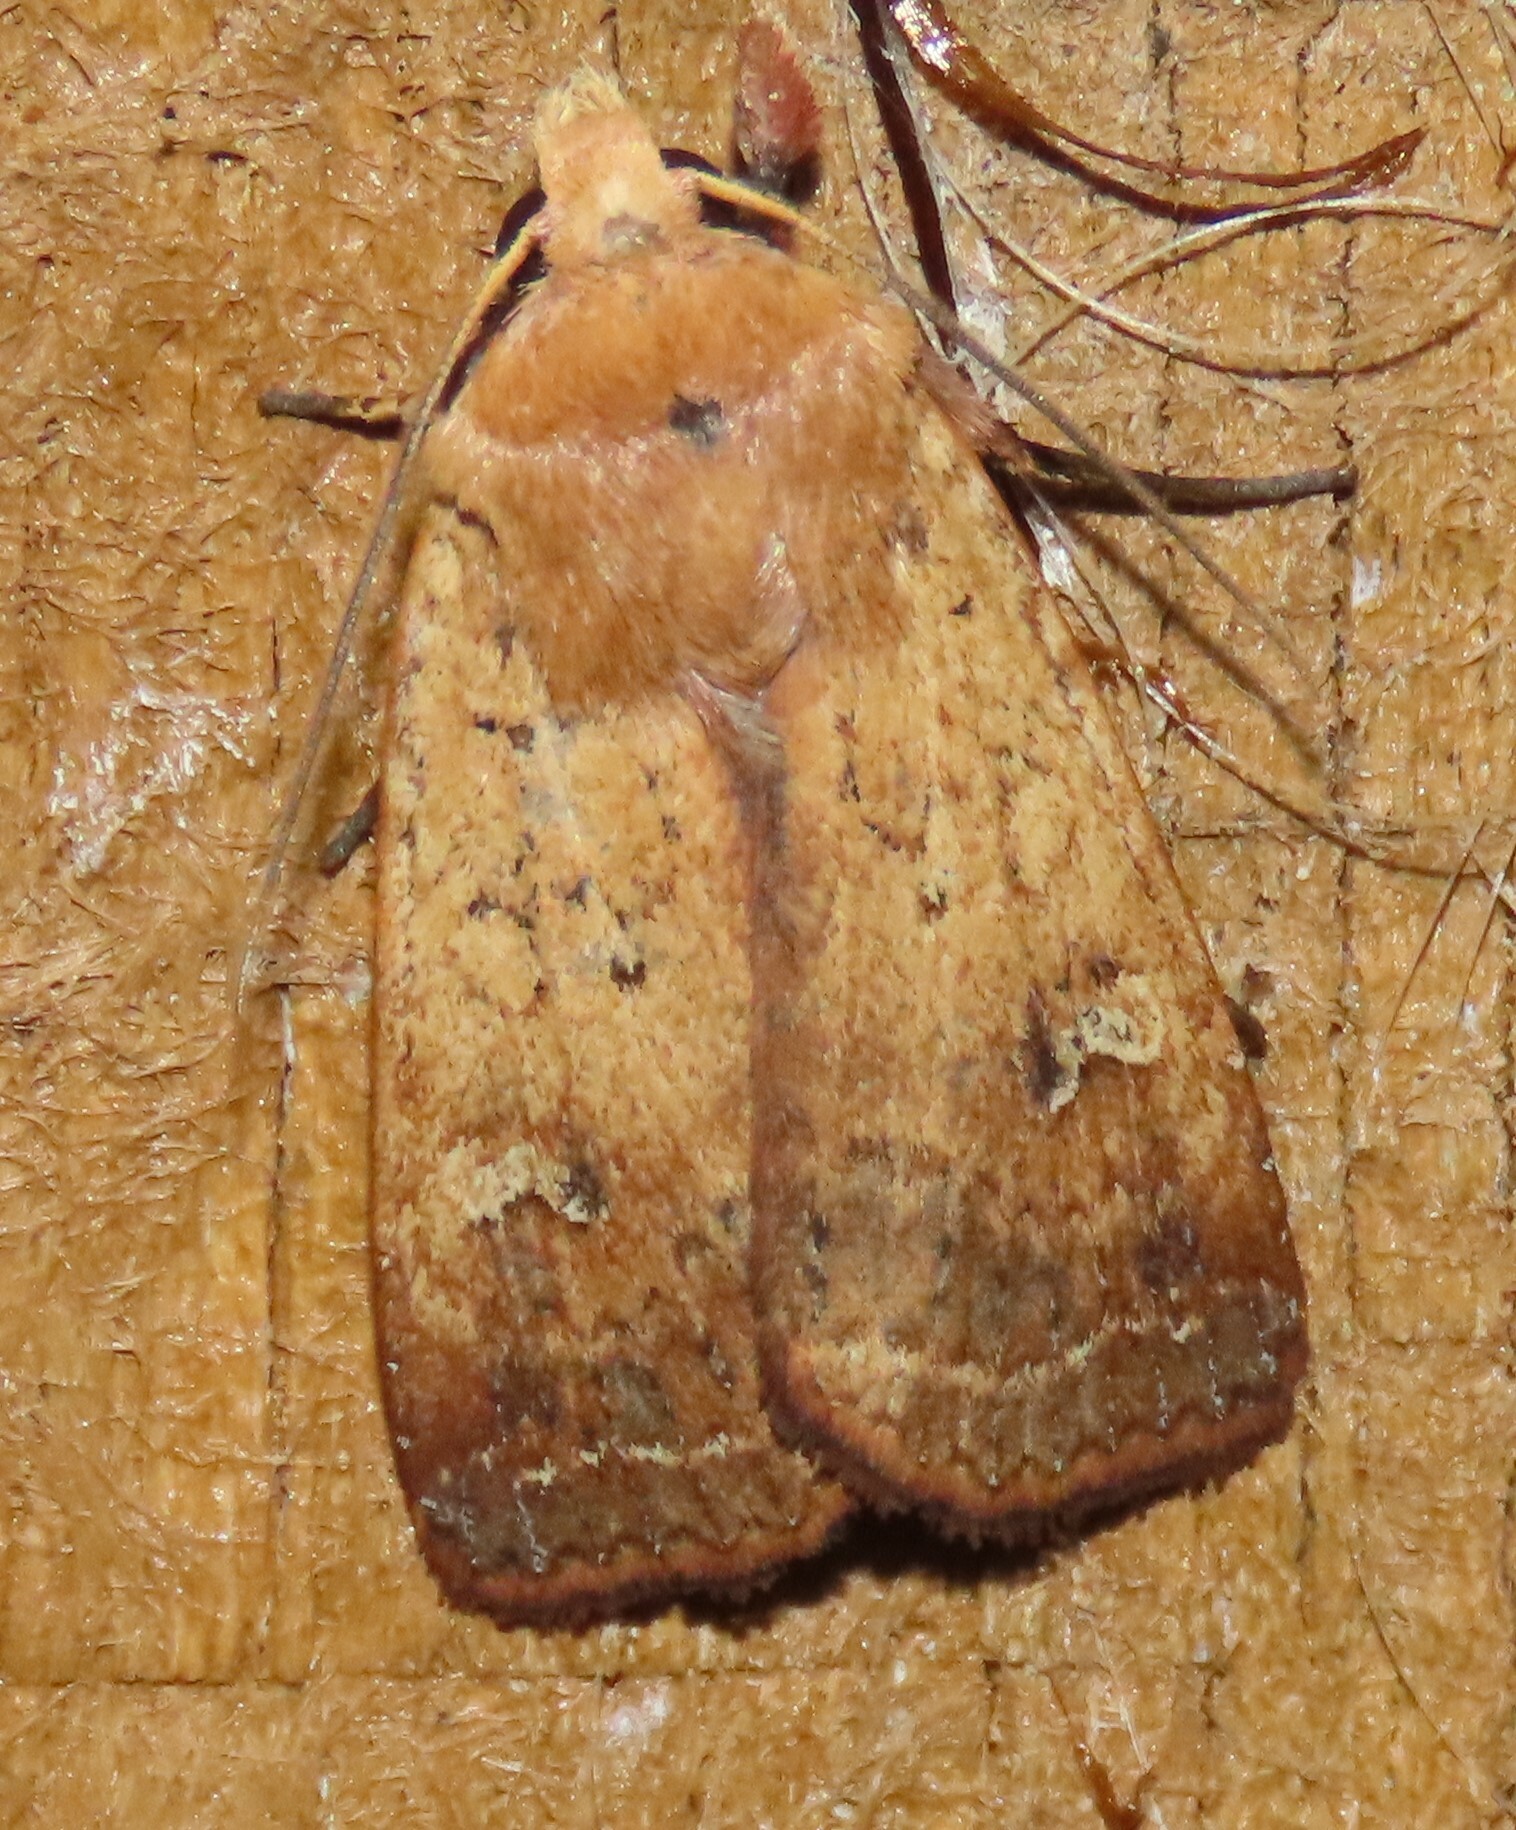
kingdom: Animalia
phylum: Arthropoda
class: Insecta
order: Lepidoptera
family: Noctuidae
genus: Diarsia
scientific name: Diarsia intermixta
